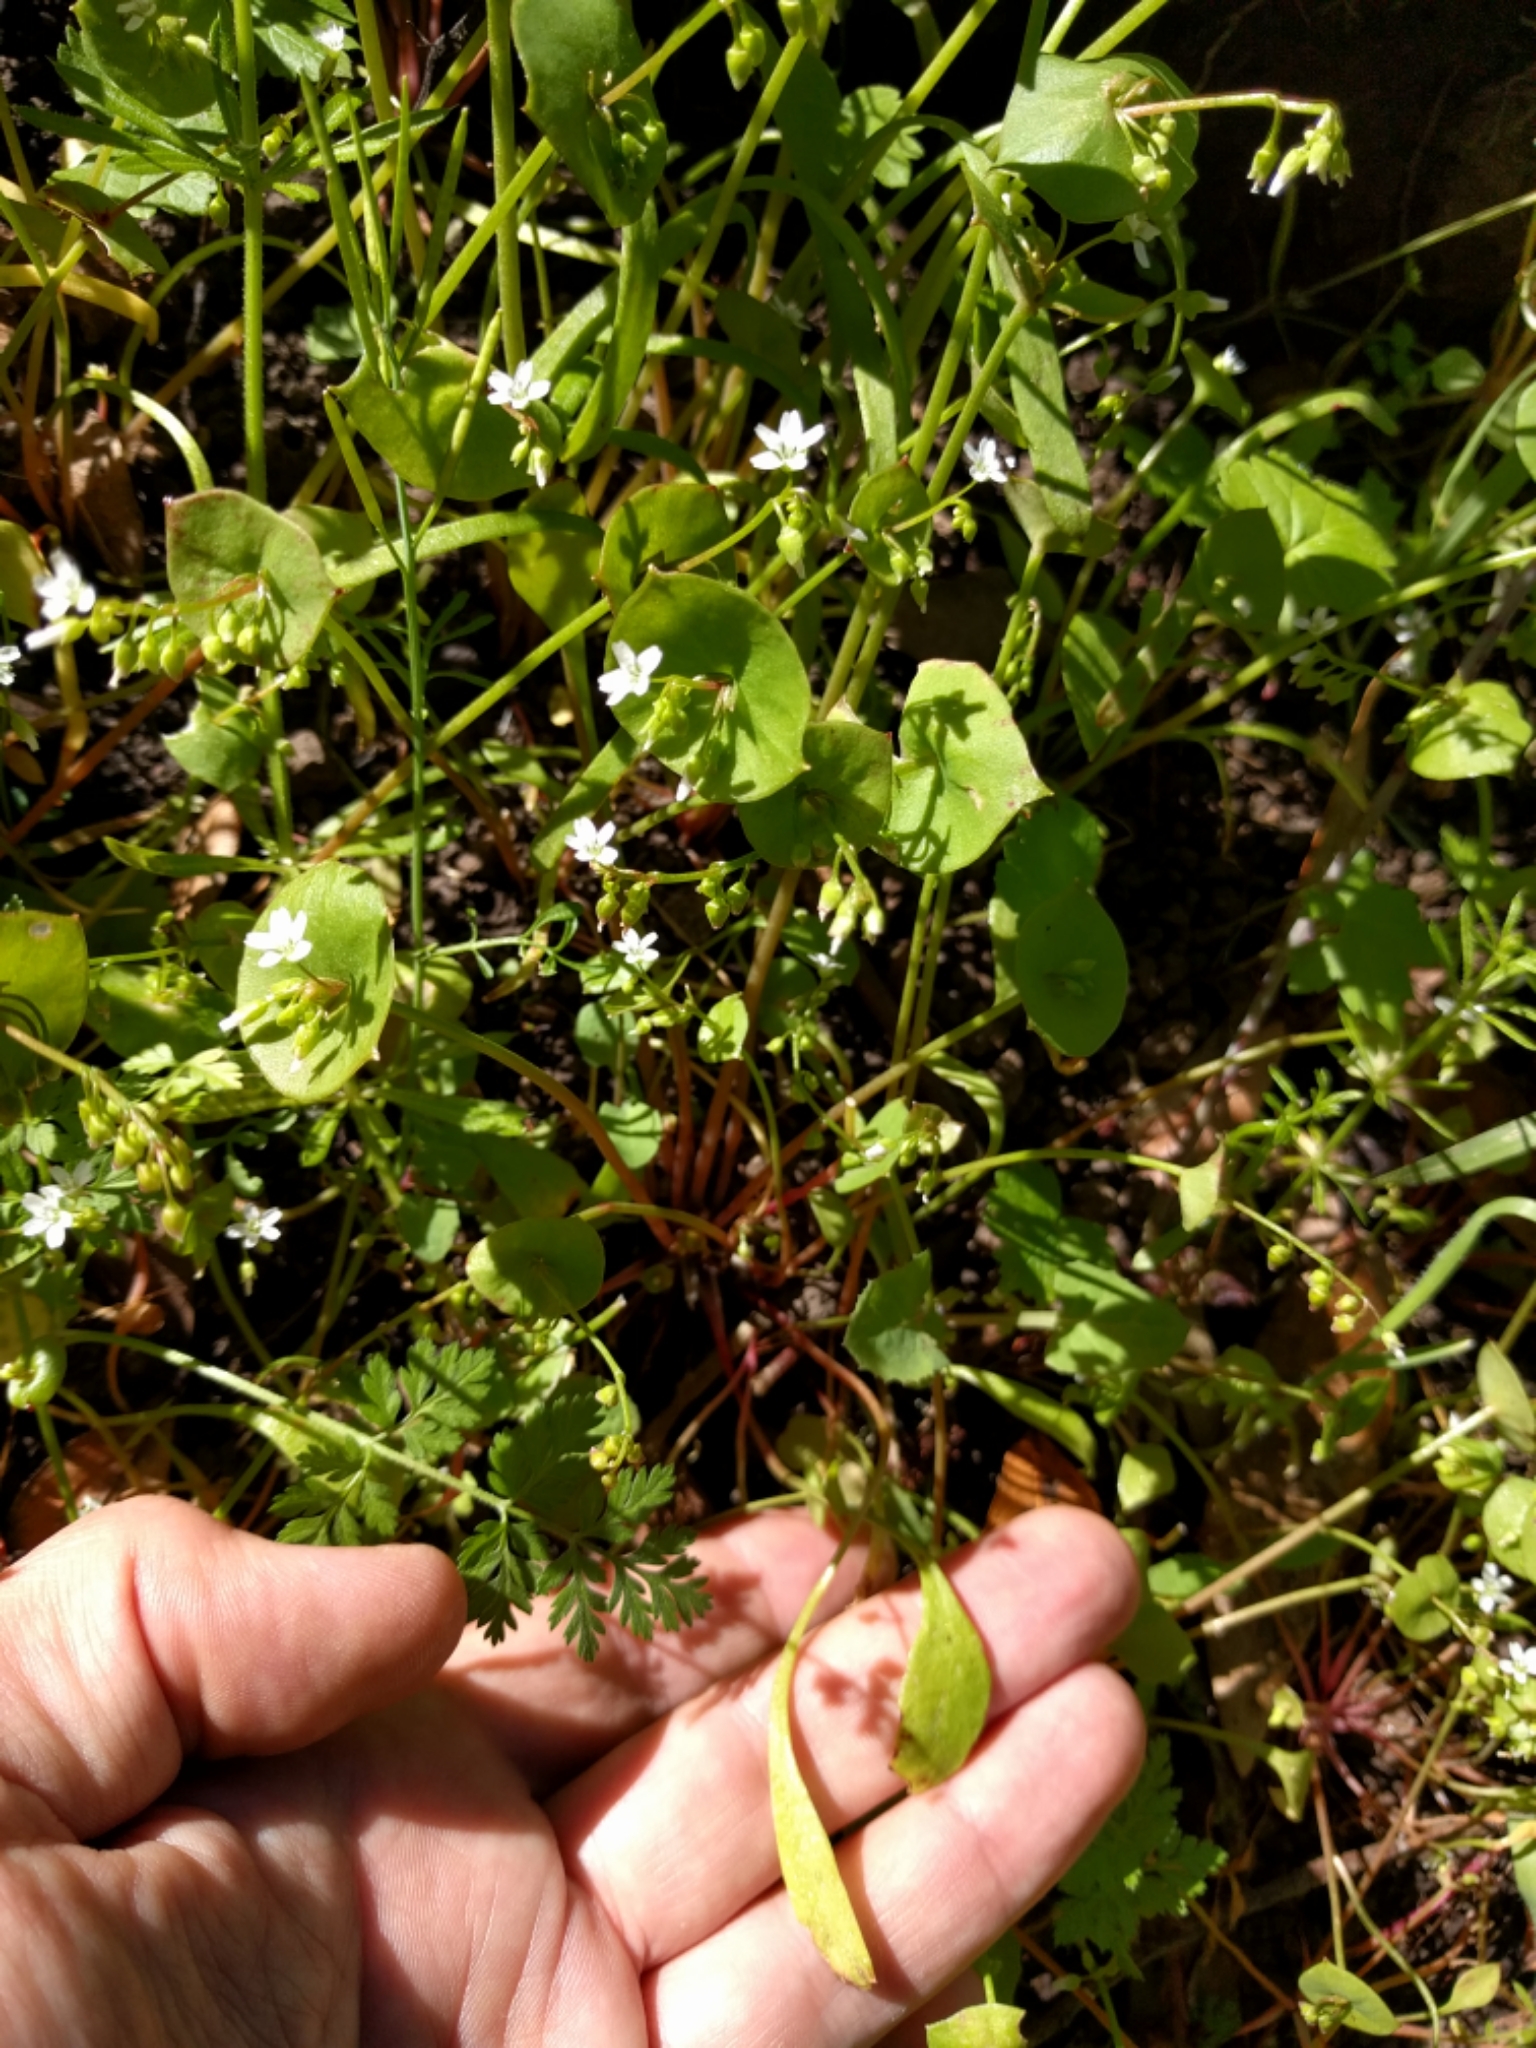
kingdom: Plantae
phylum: Tracheophyta
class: Magnoliopsida
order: Caryophyllales
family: Montiaceae
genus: Claytonia
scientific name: Claytonia perfoliata
